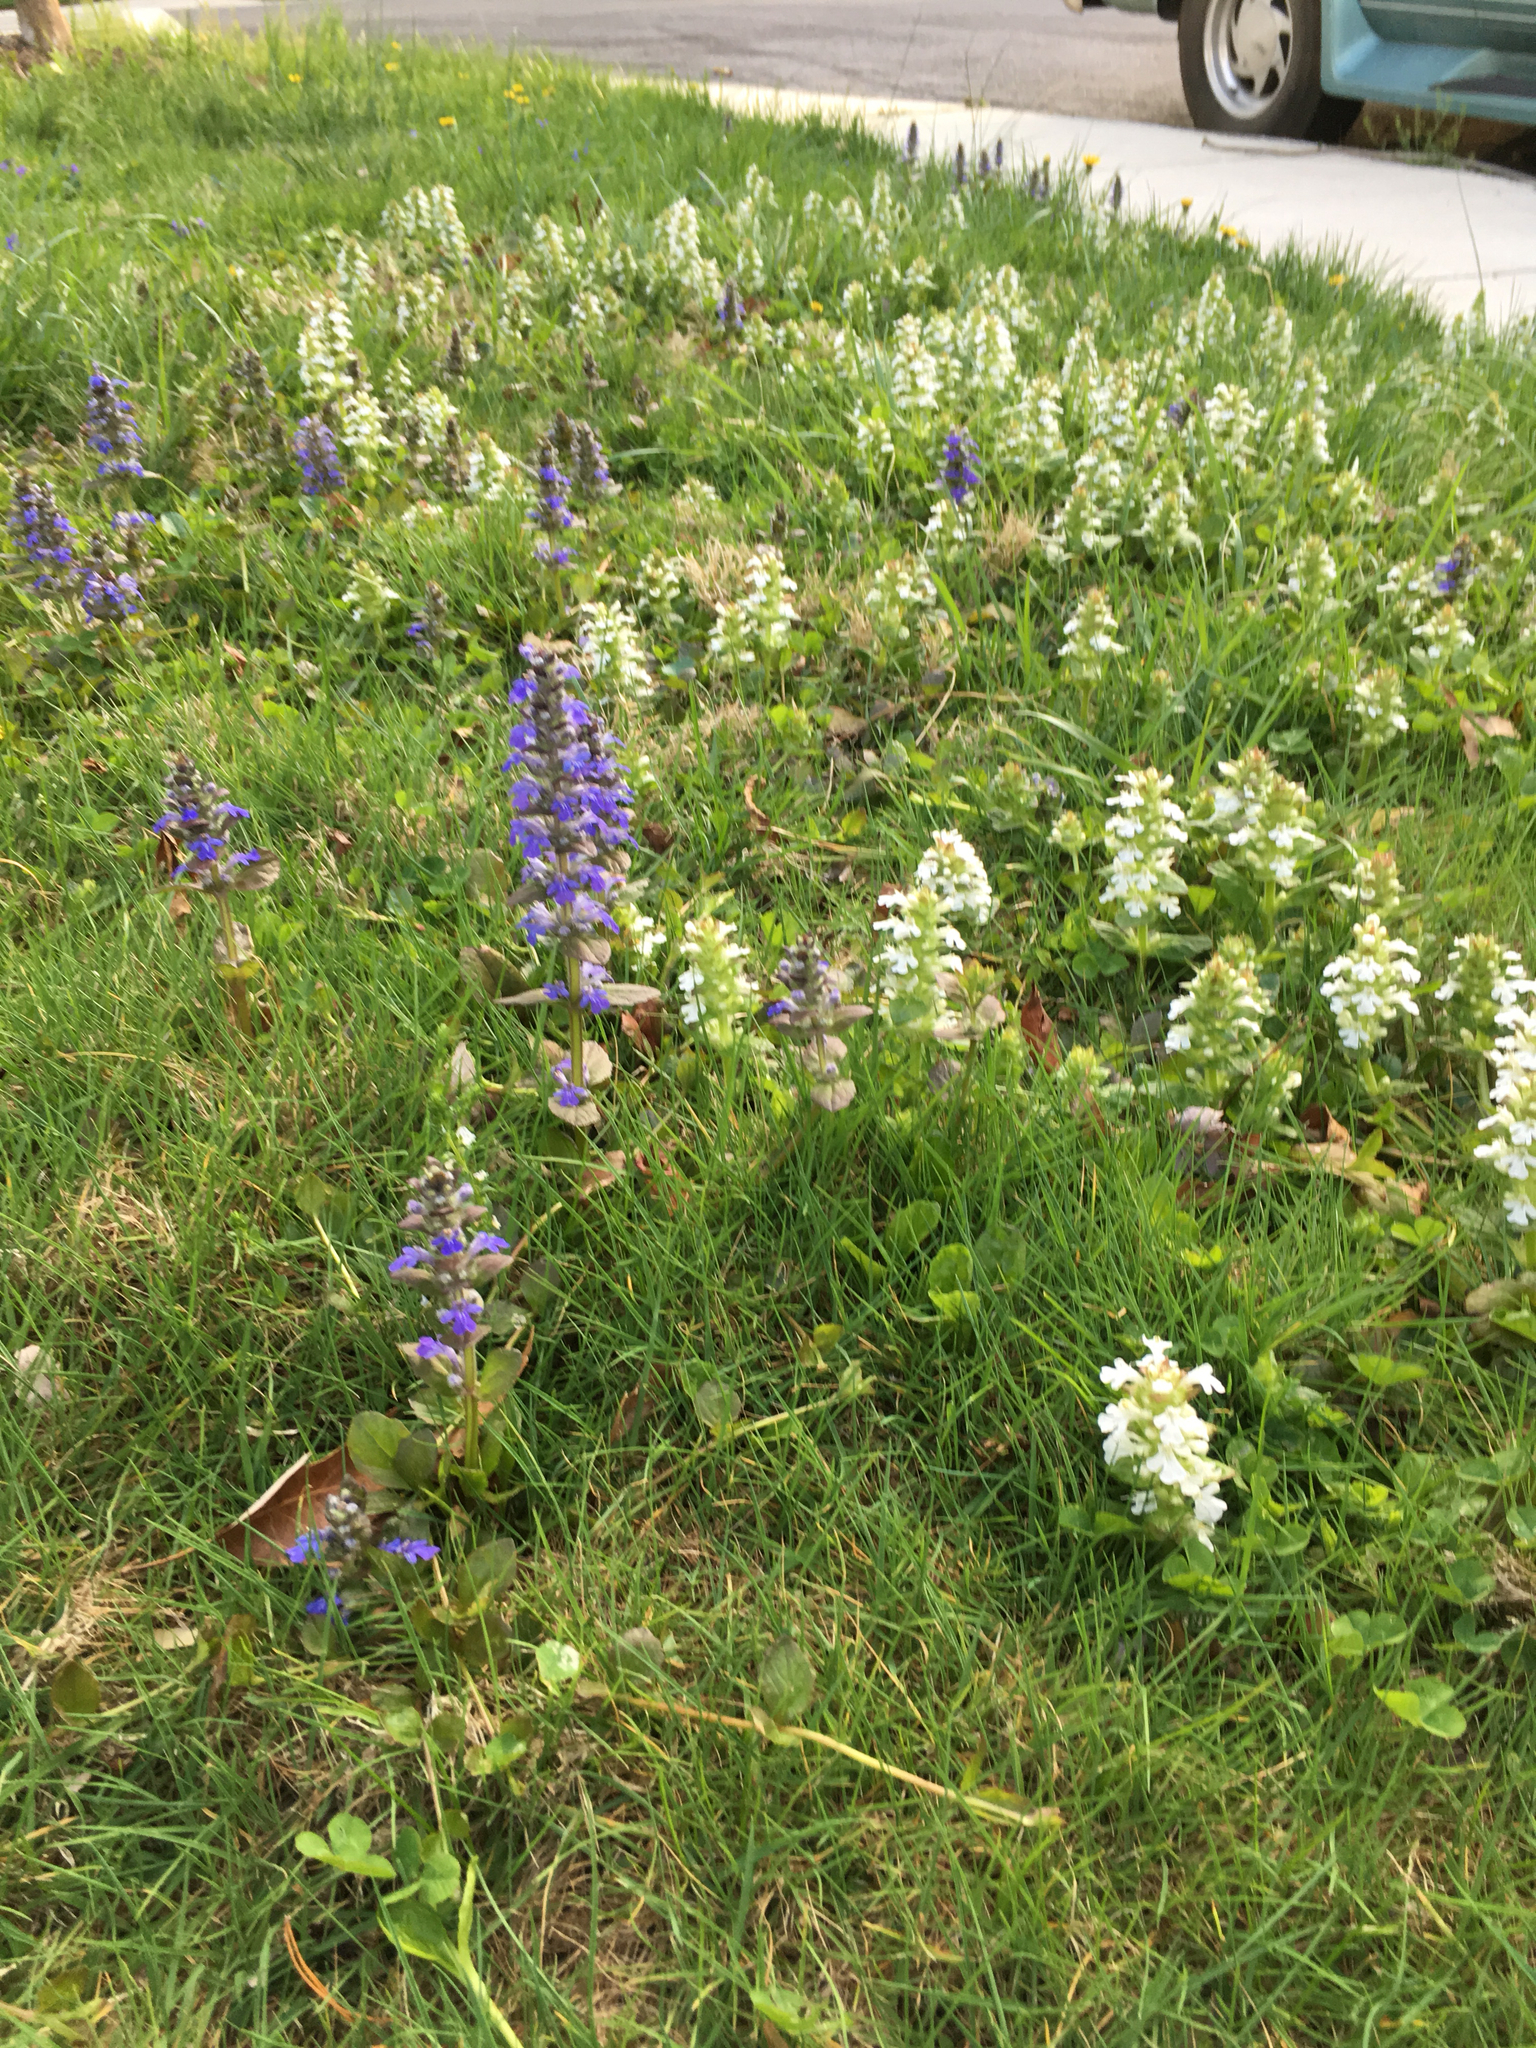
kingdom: Plantae
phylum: Tracheophyta
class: Magnoliopsida
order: Lamiales
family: Lamiaceae
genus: Ajuga
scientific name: Ajuga reptans
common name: Bugle
